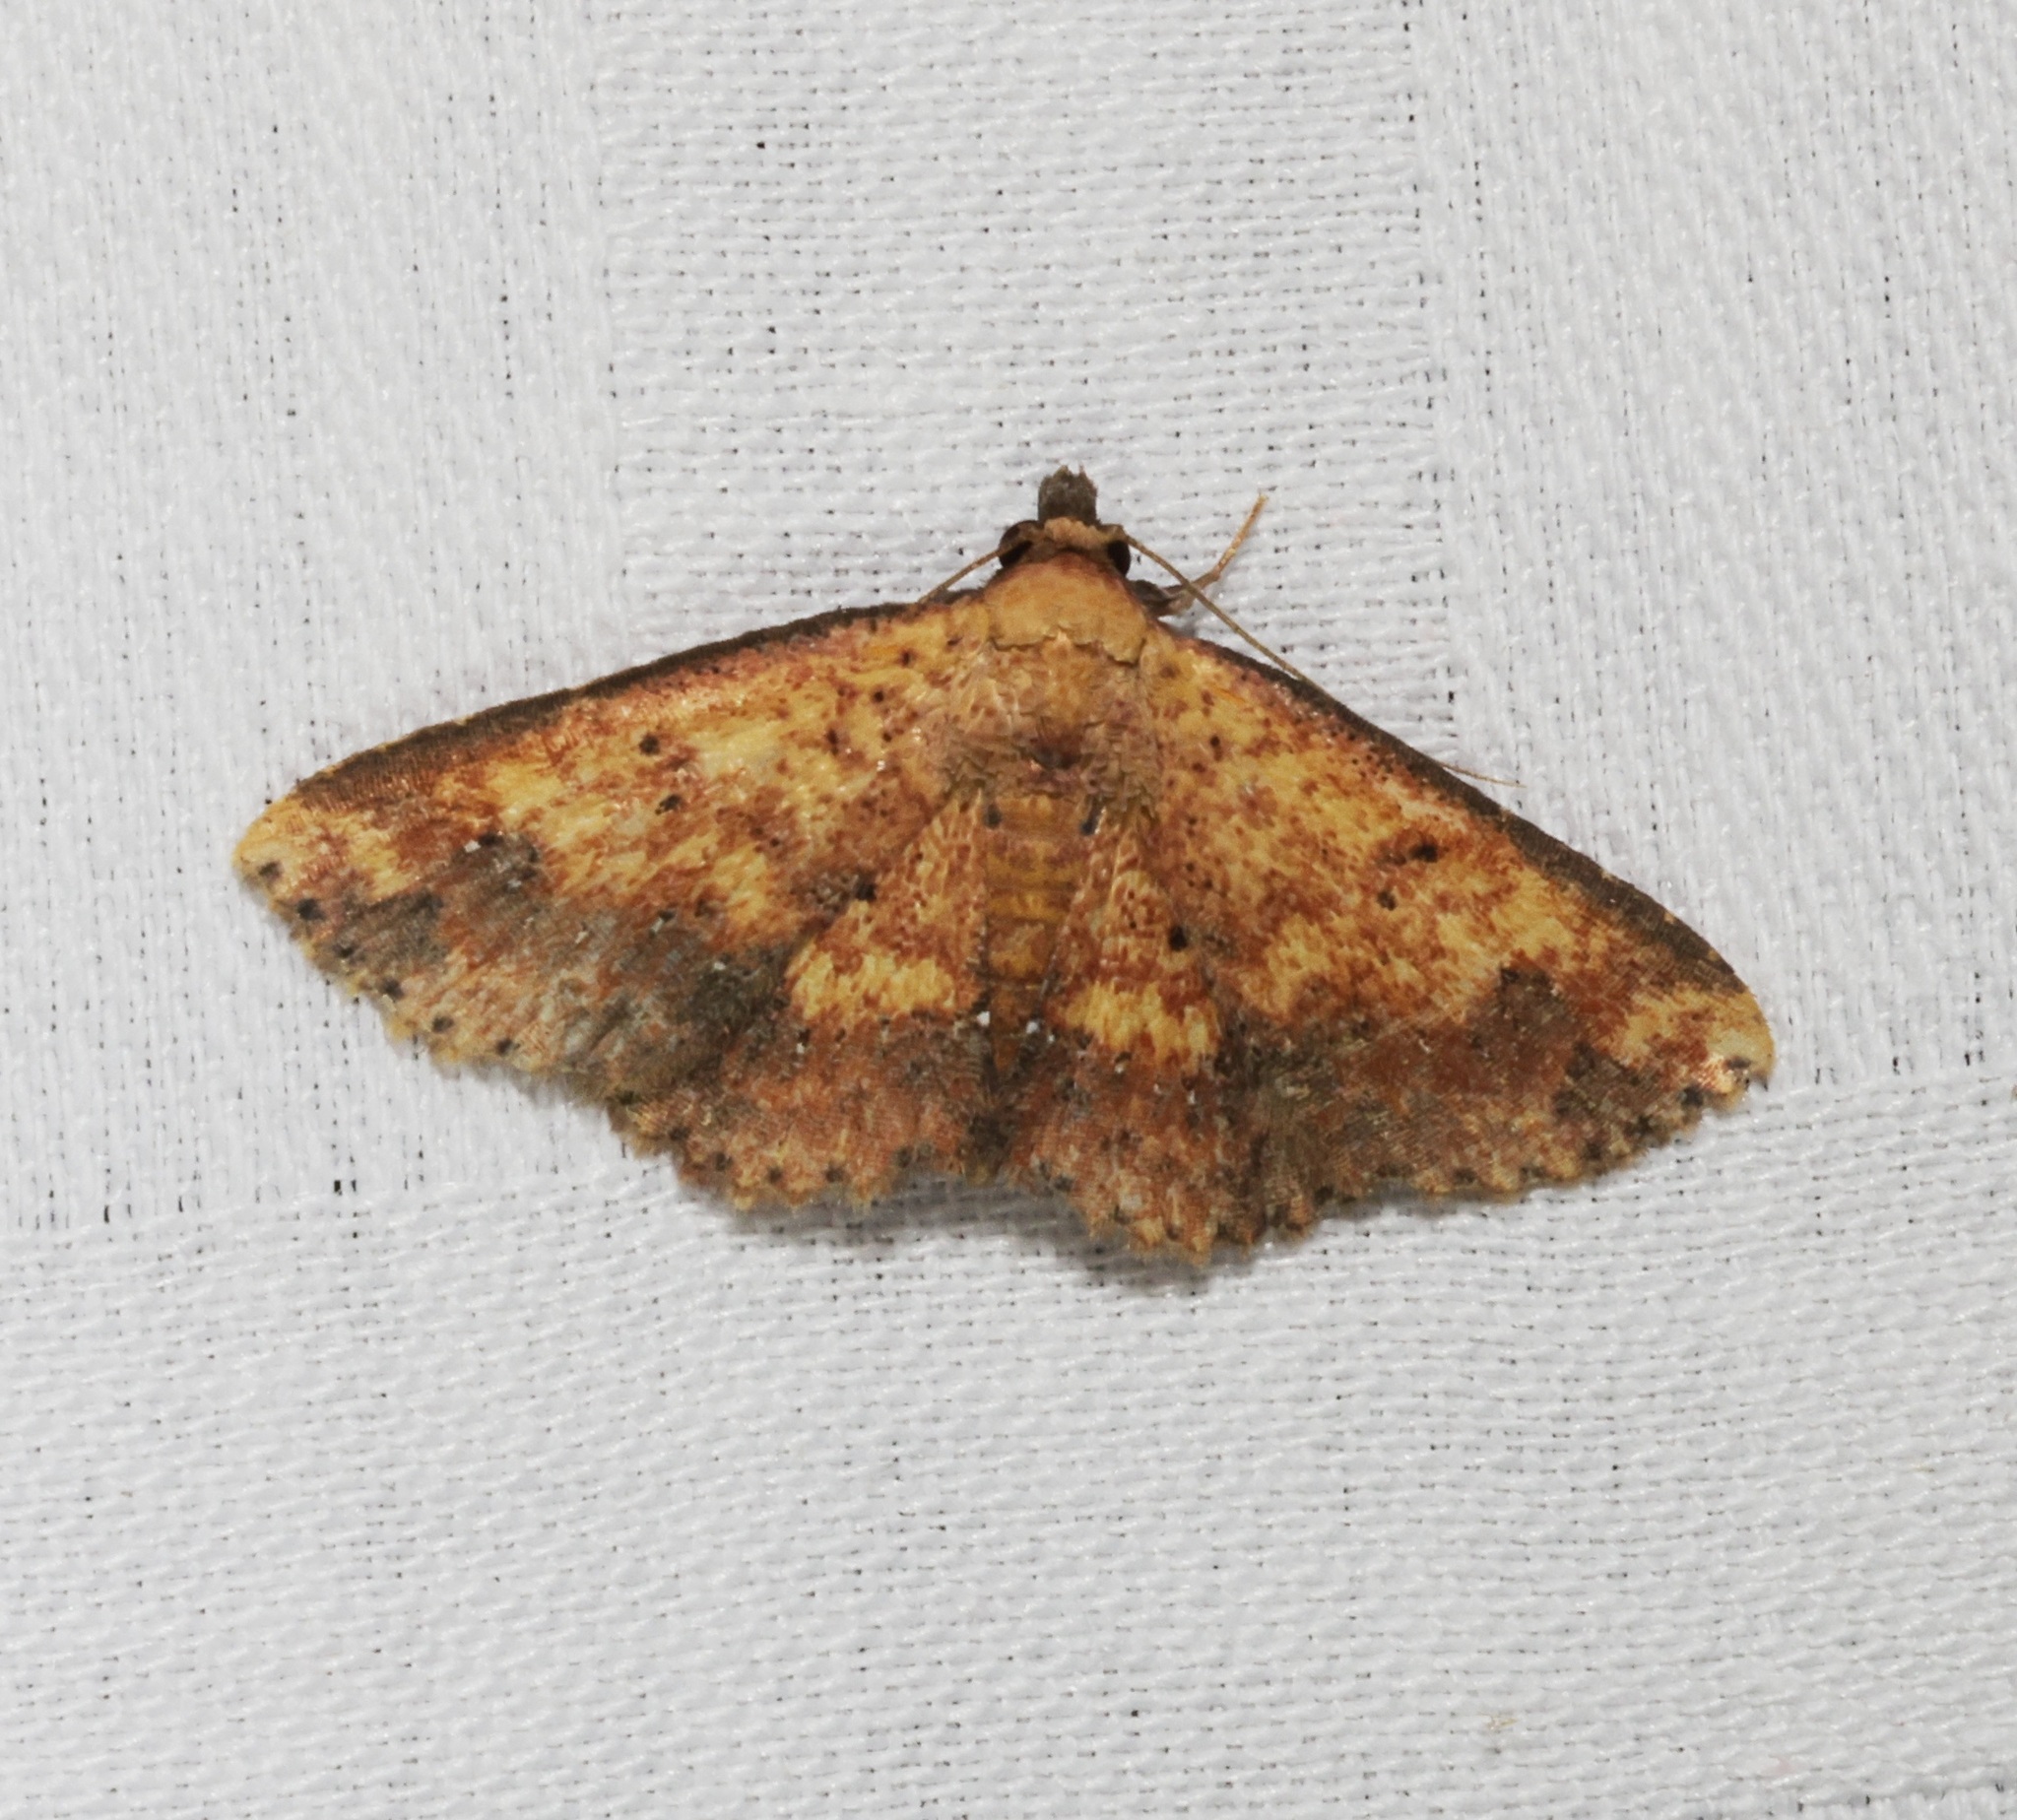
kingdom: Animalia
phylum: Arthropoda
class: Insecta
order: Lepidoptera
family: Noctuidae
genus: Cerynea
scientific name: Cerynea ustula
